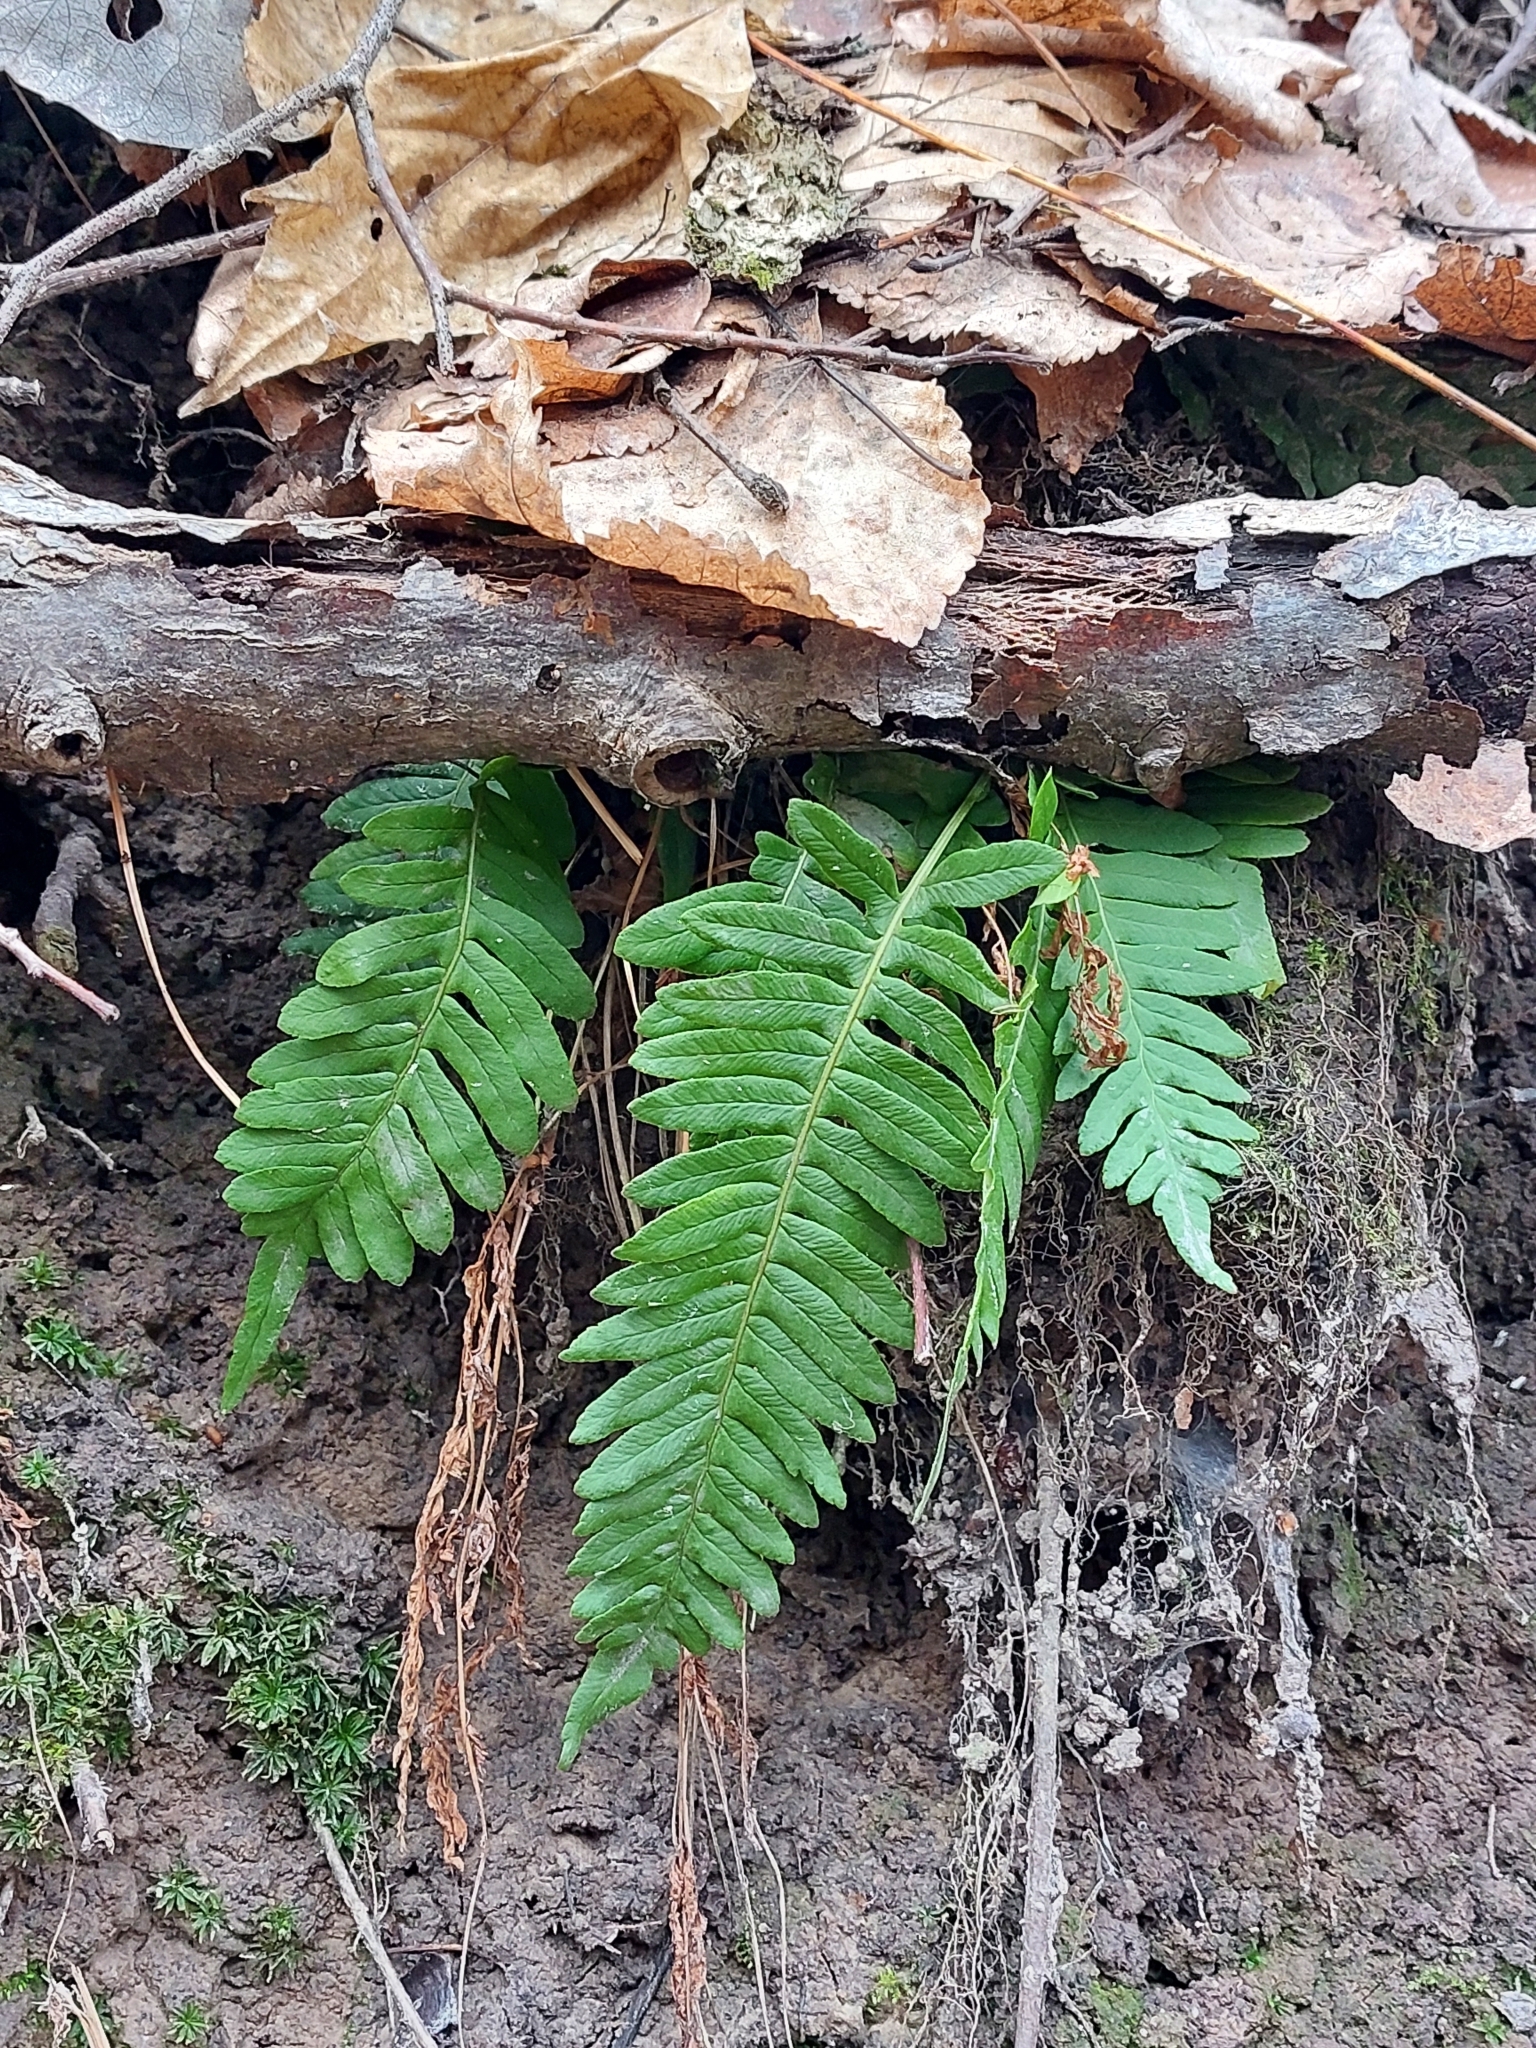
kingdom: Plantae
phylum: Tracheophyta
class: Polypodiopsida
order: Polypodiales
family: Polypodiaceae
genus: Polypodium
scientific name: Polypodium vulgare
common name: Common polypody
